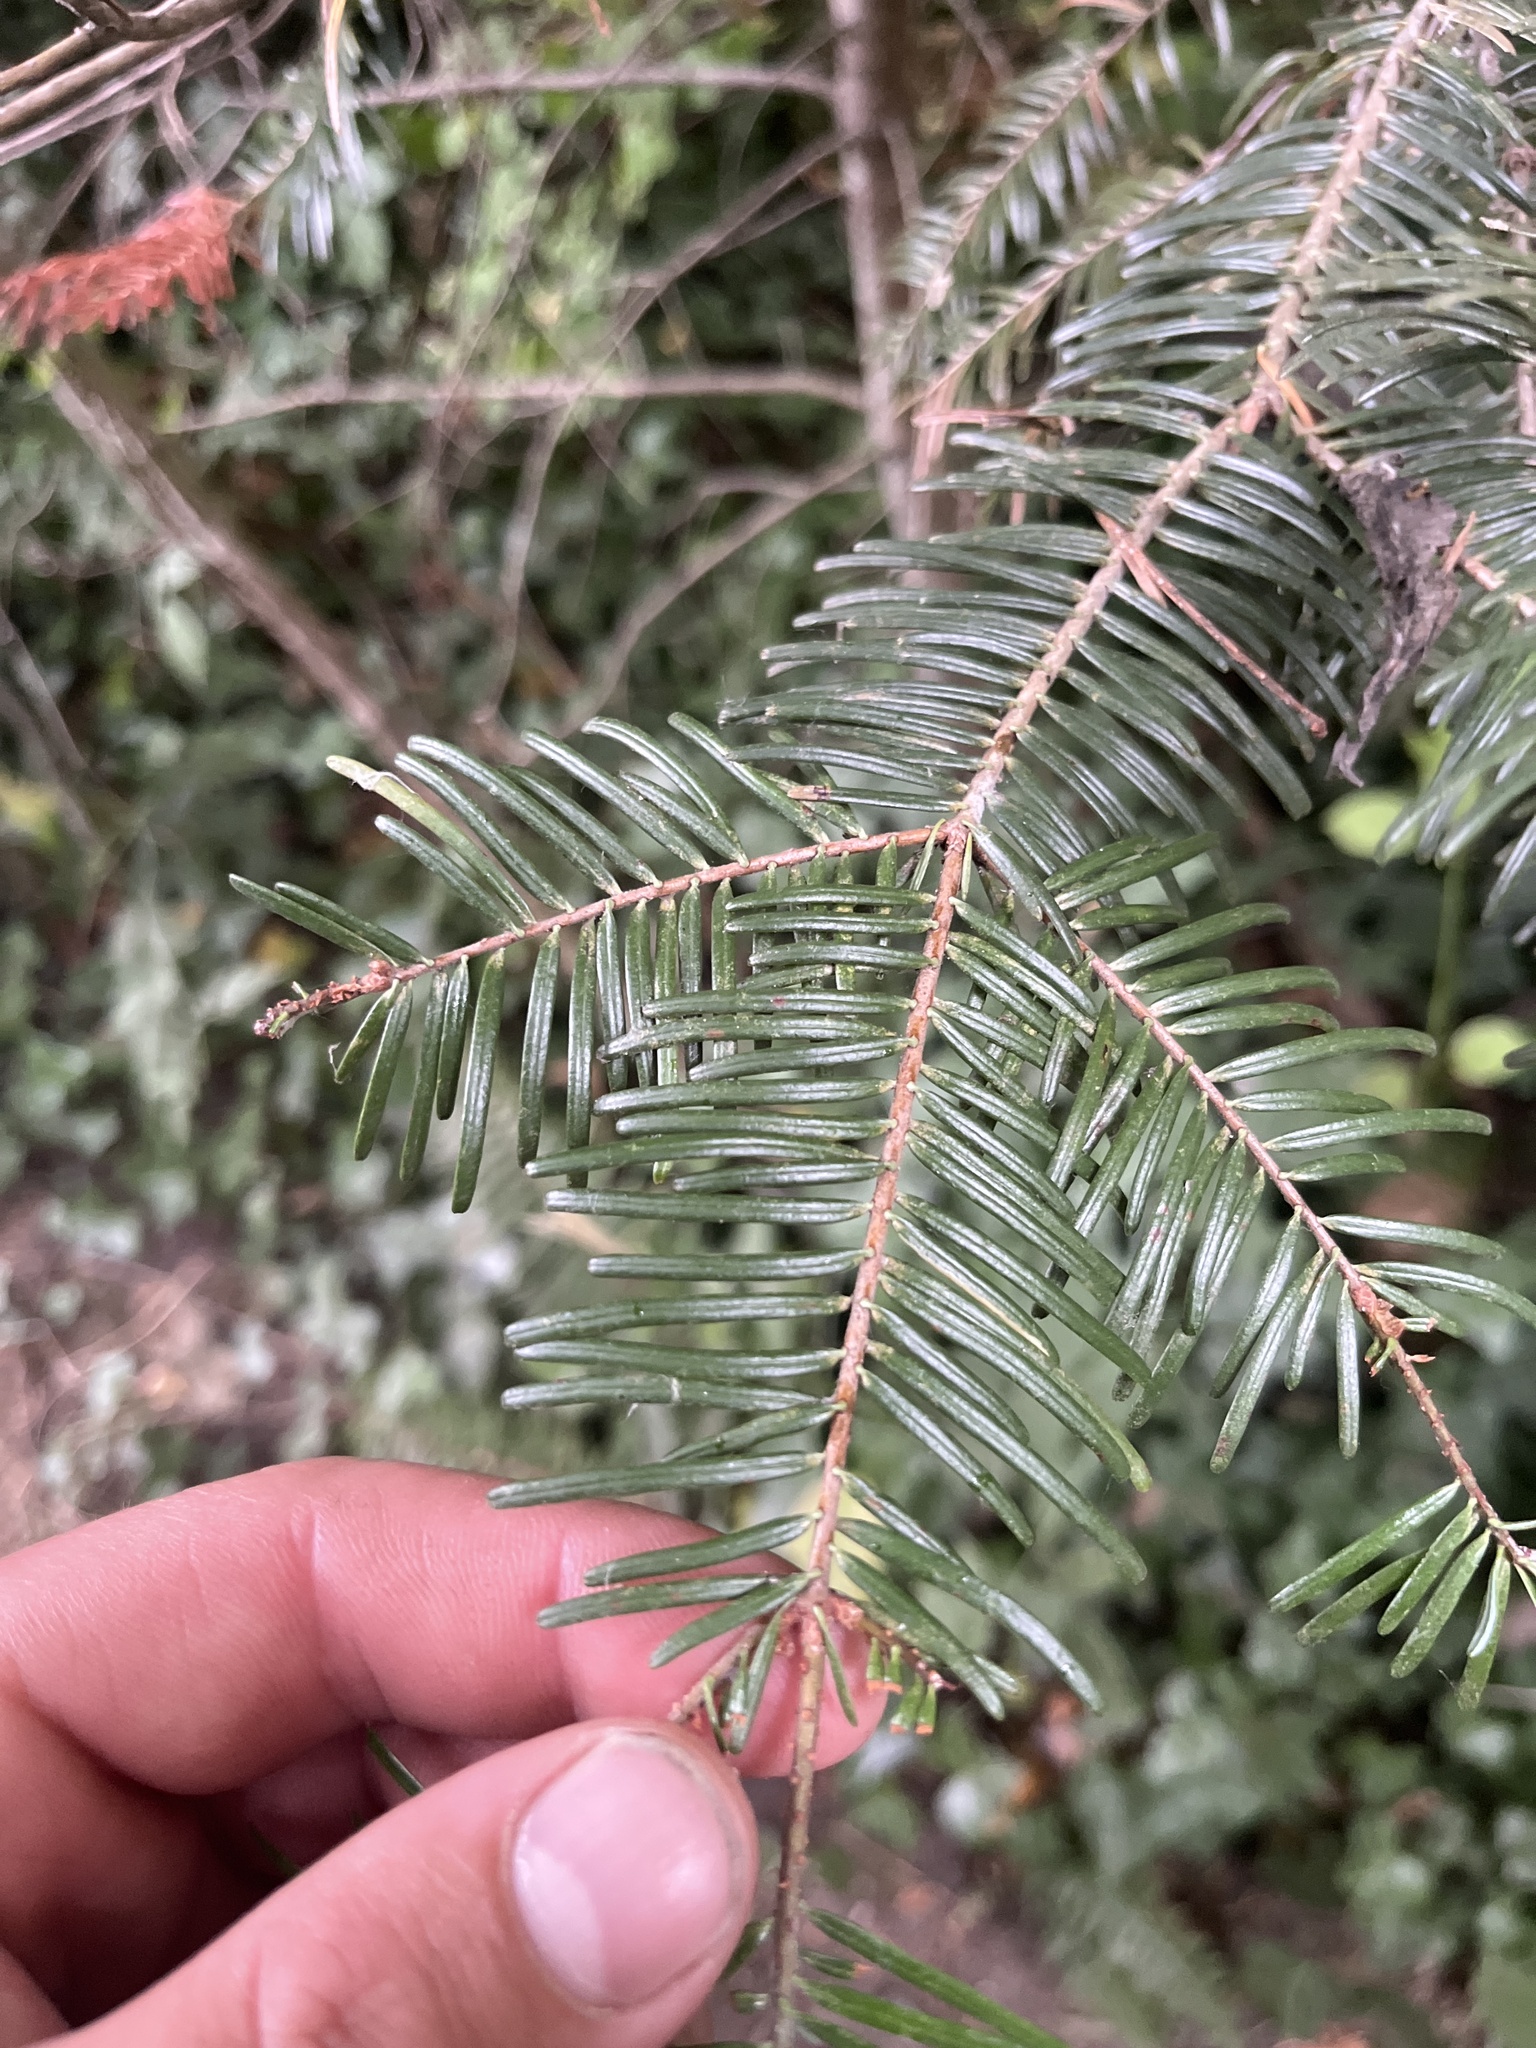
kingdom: Plantae
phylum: Tracheophyta
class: Pinopsida
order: Pinales
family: Pinaceae
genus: Abies
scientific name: Abies grandis
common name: Giant fir
